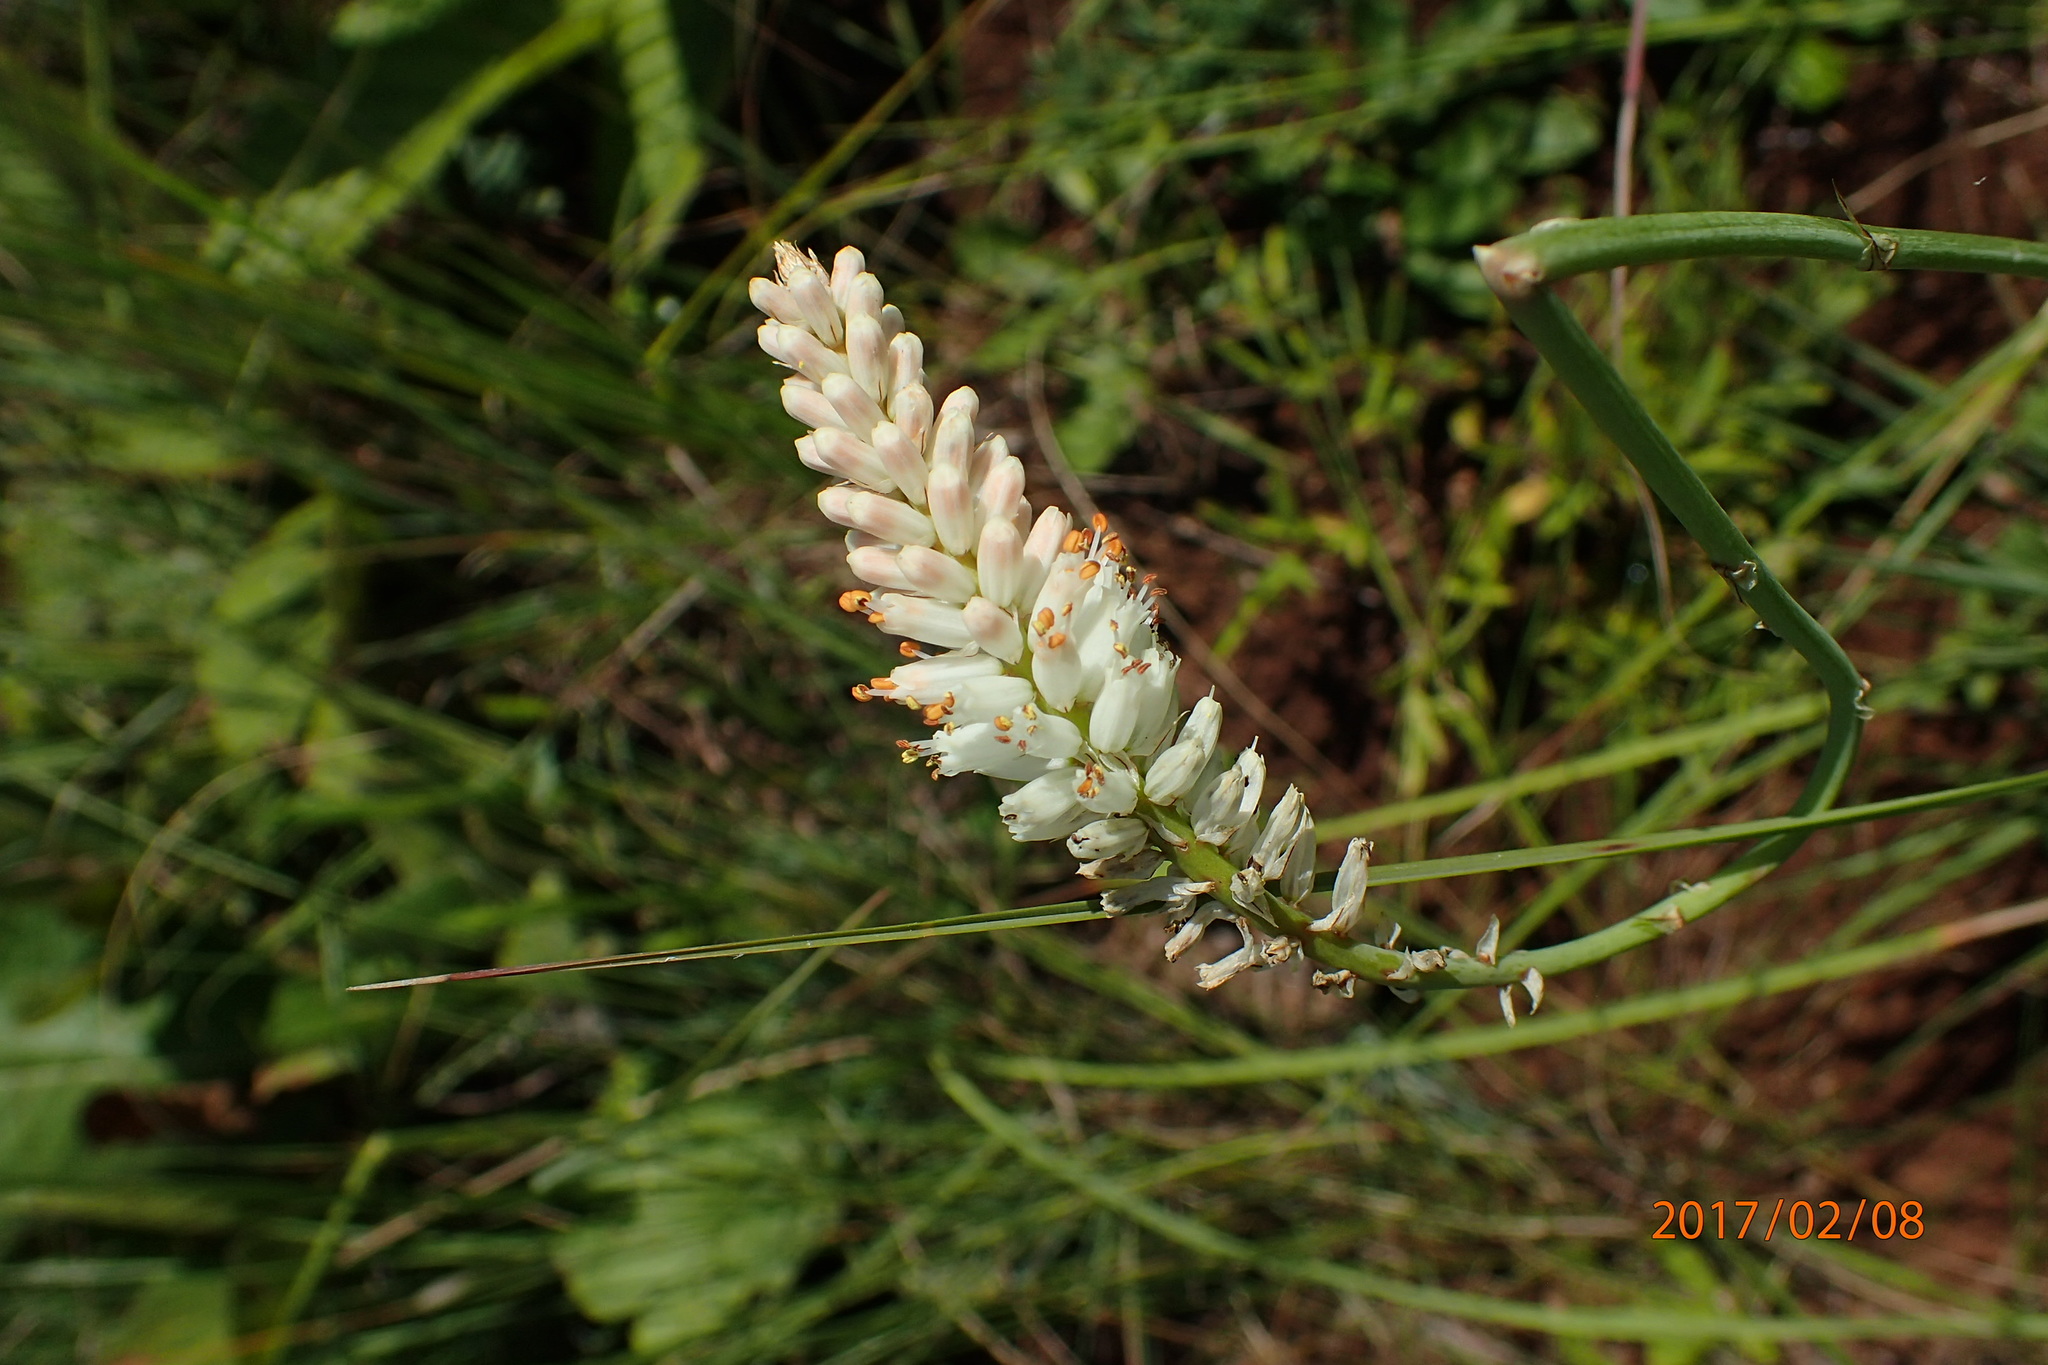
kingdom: Plantae
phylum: Tracheophyta
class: Liliopsida
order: Asparagales
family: Asphodelaceae
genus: Kniphofia
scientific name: Kniphofia buchananii
